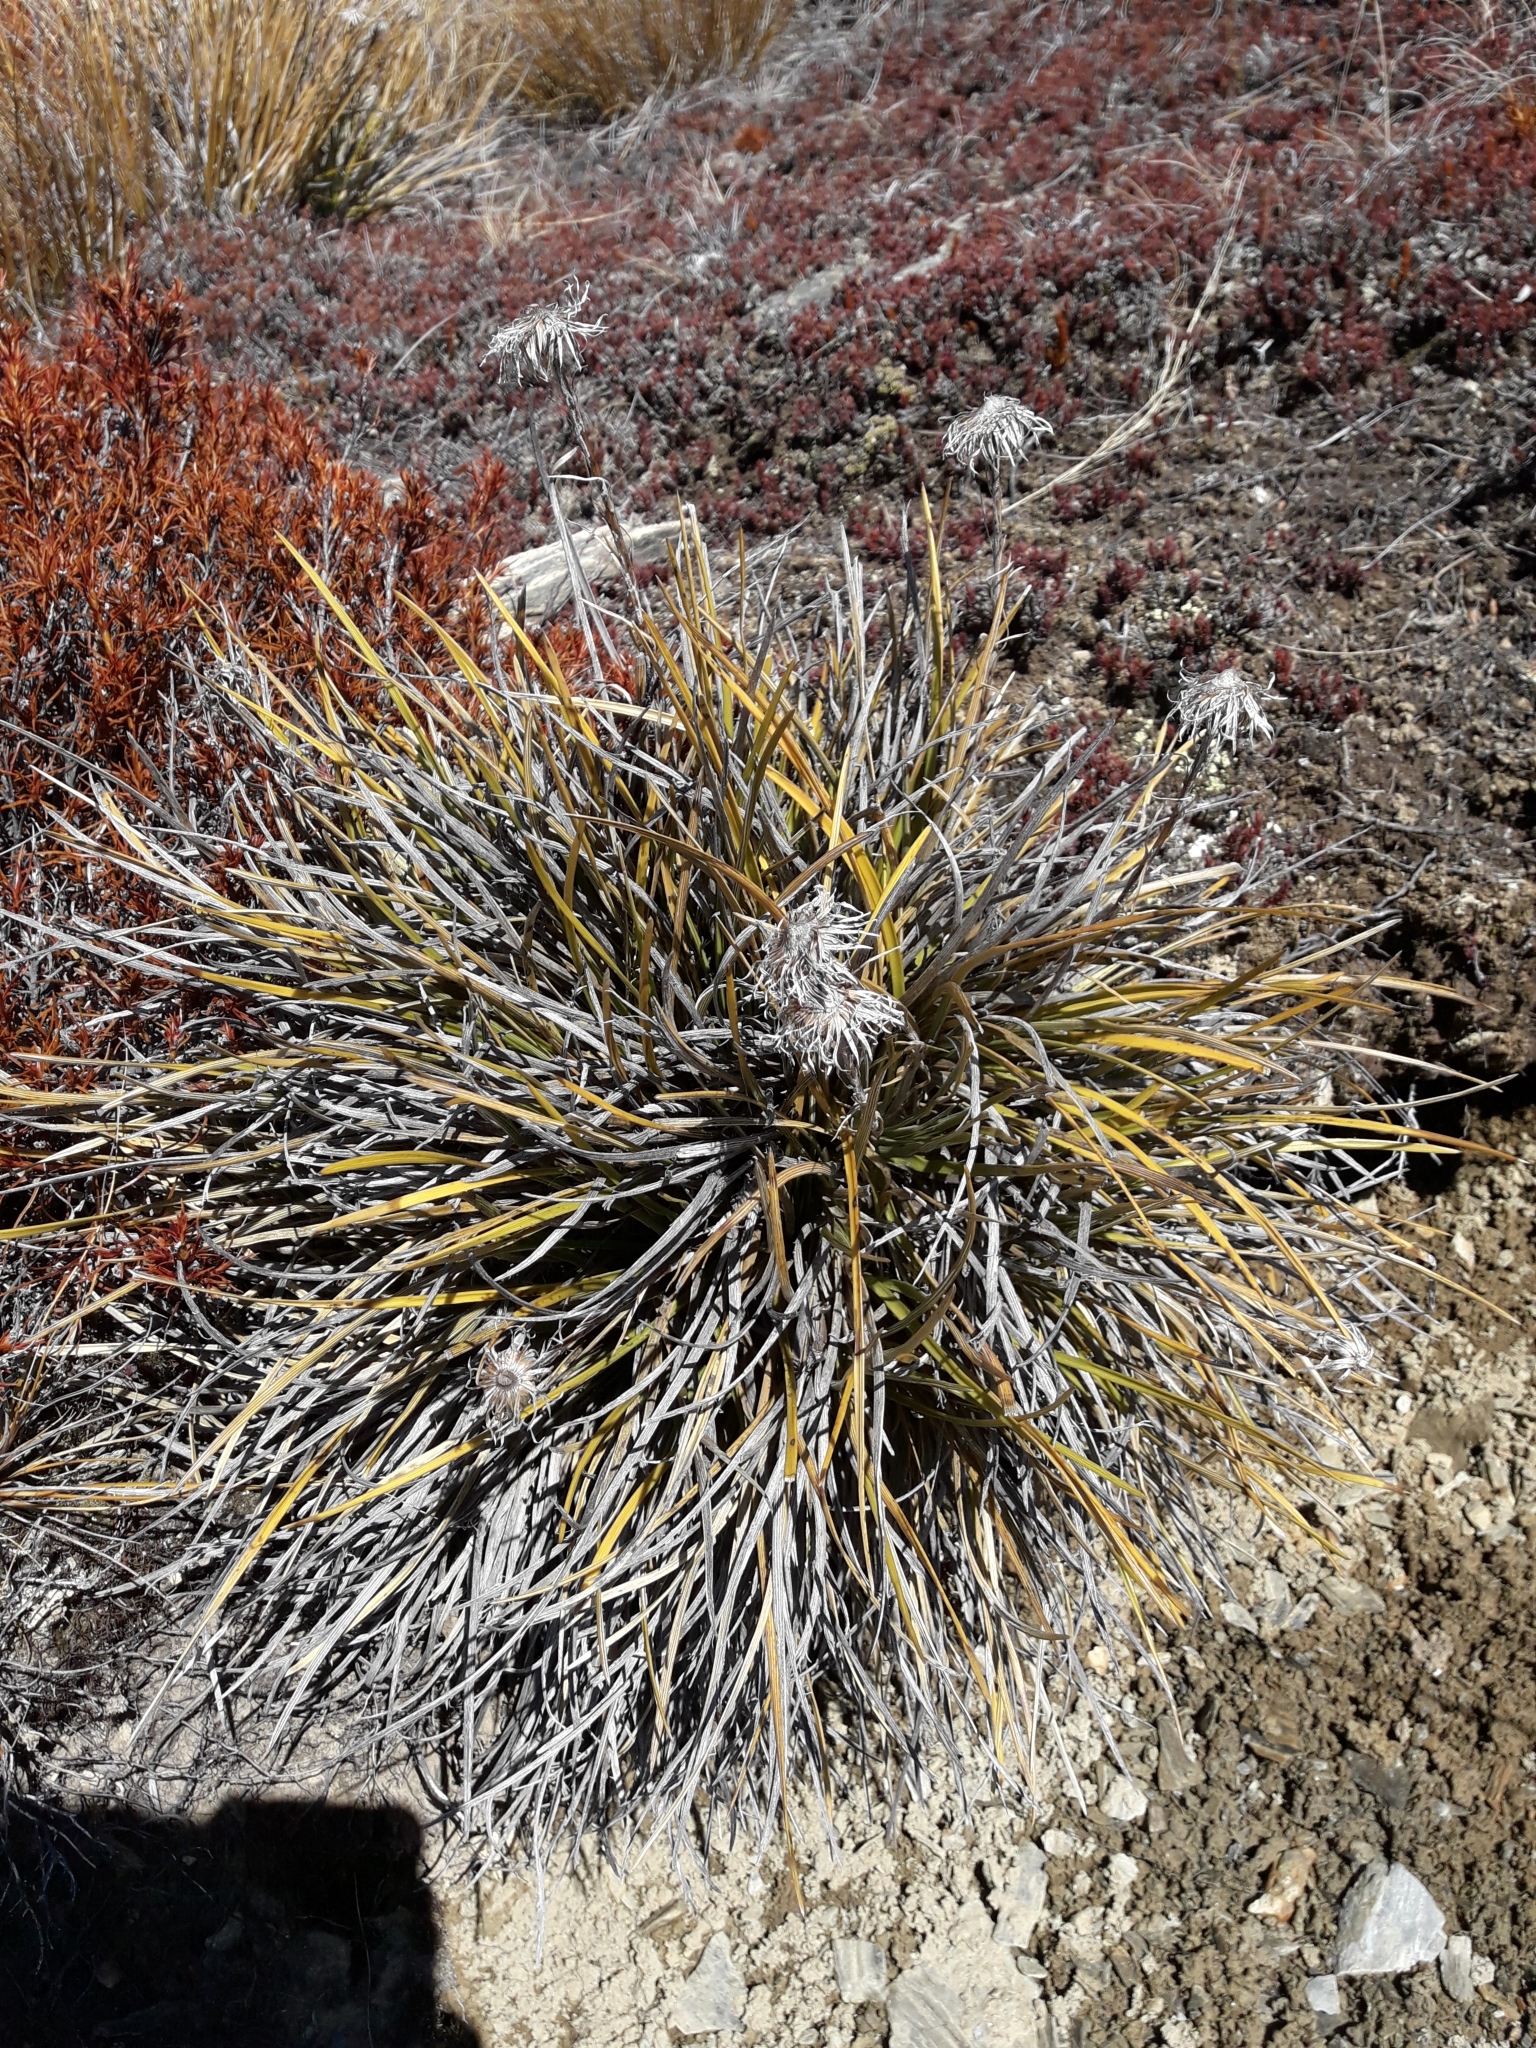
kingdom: Plantae
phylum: Tracheophyta
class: Magnoliopsida
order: Asterales
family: Asteraceae
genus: Celmisia
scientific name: Celmisia lyallii
